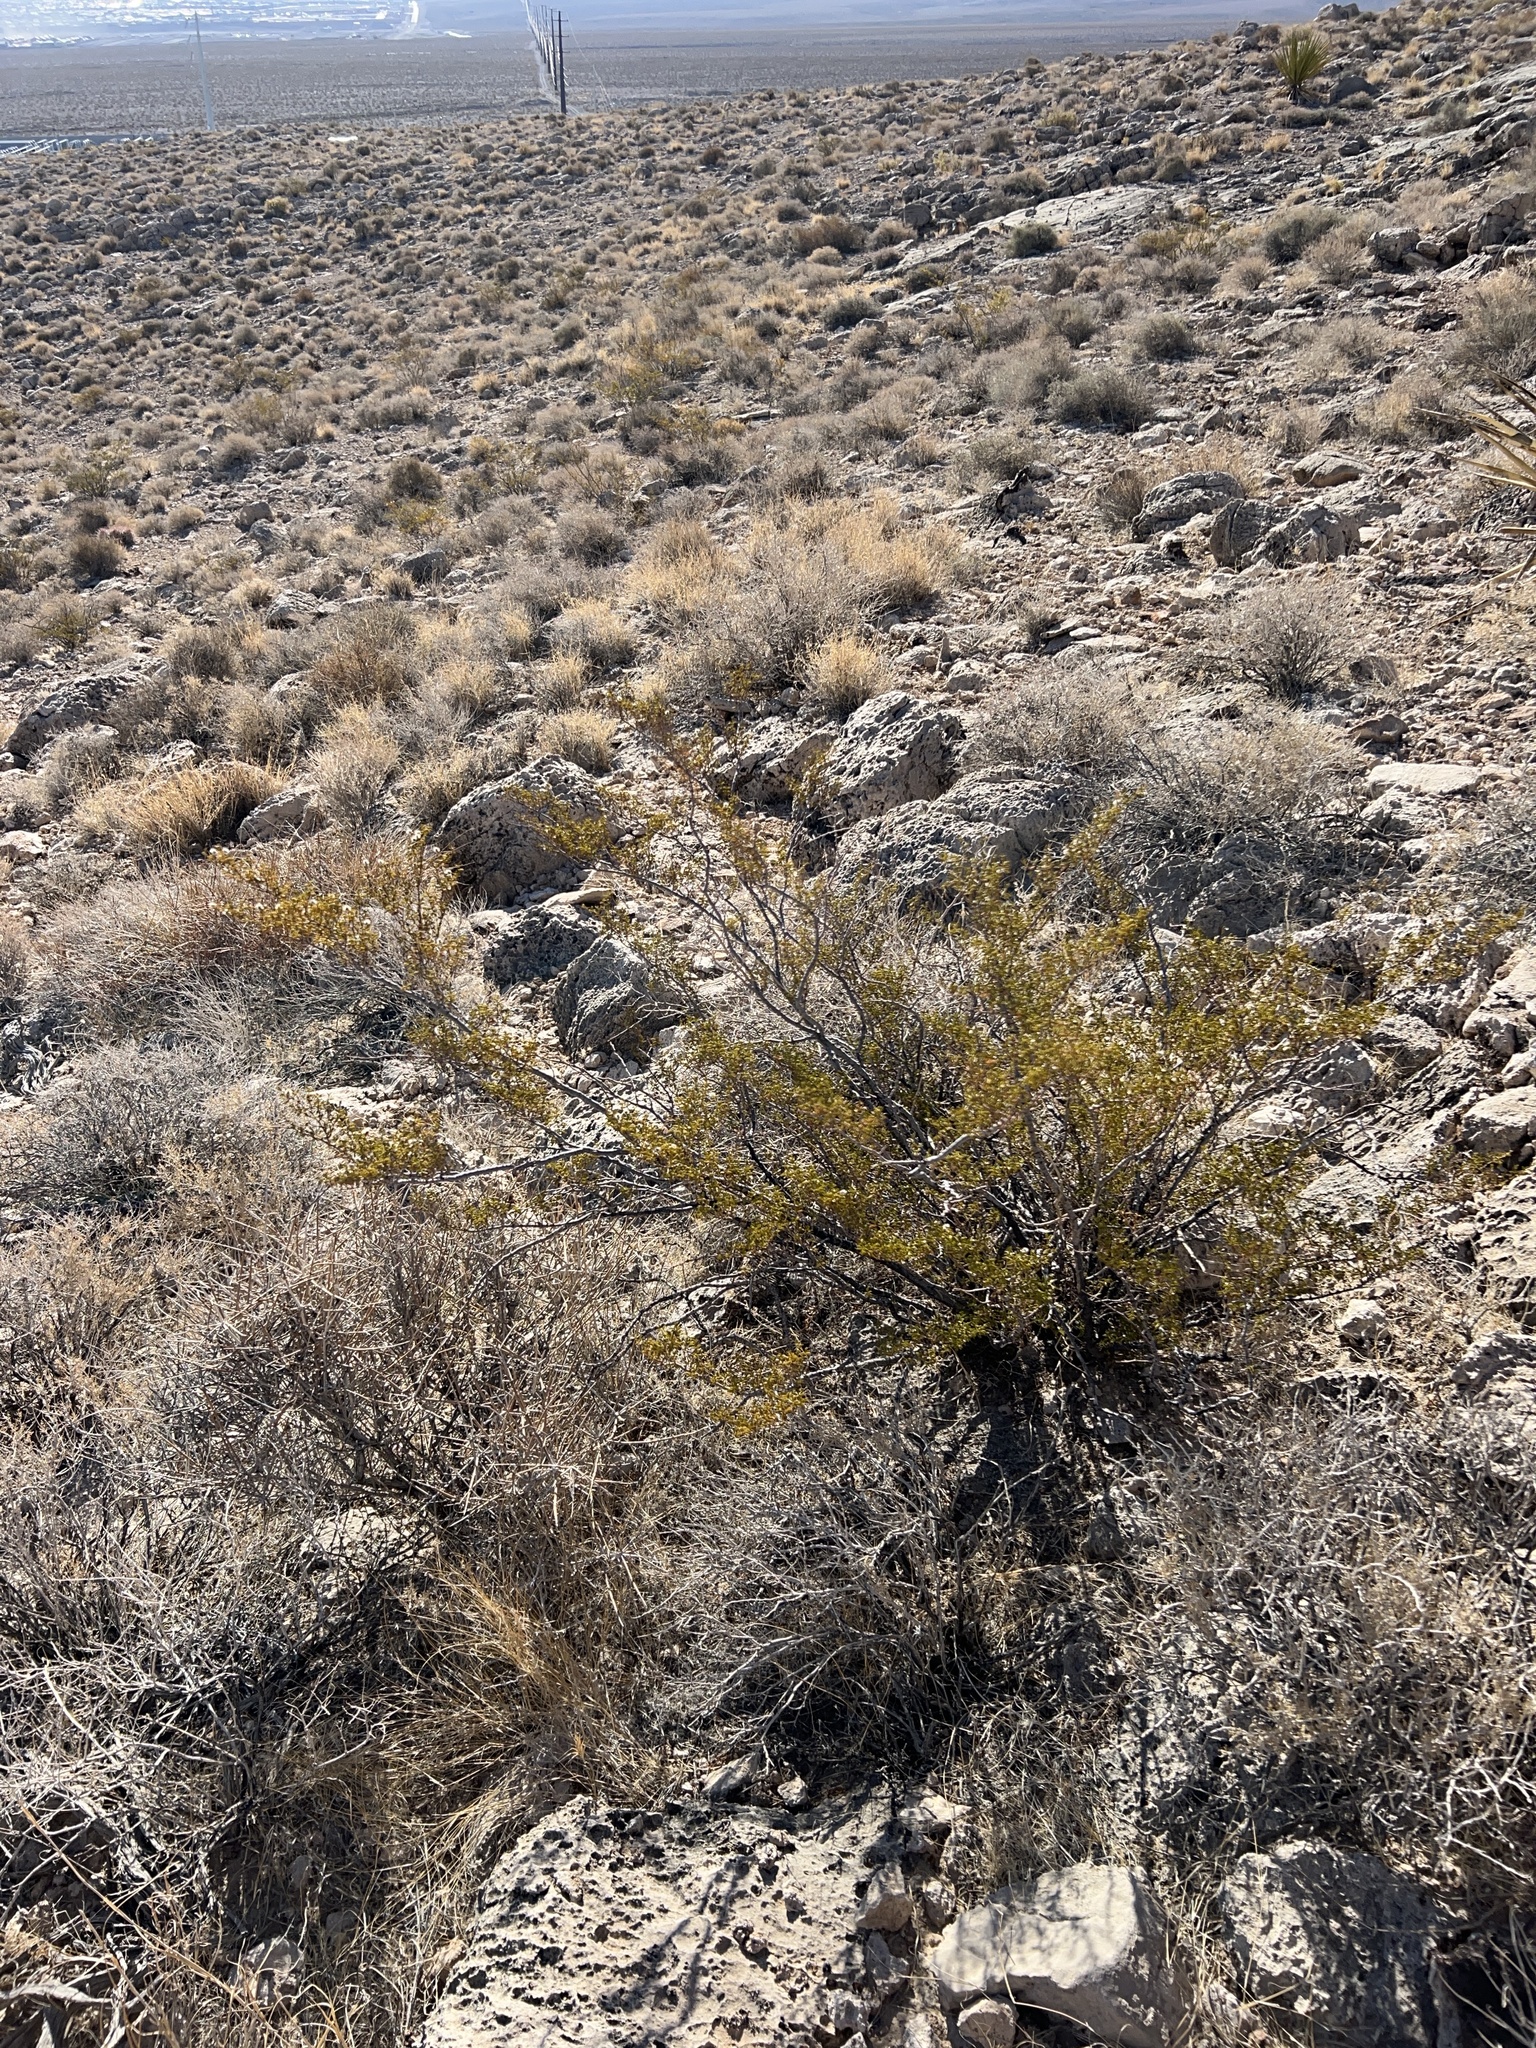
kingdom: Plantae
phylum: Tracheophyta
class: Magnoliopsida
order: Zygophyllales
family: Zygophyllaceae
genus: Larrea
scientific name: Larrea tridentata
